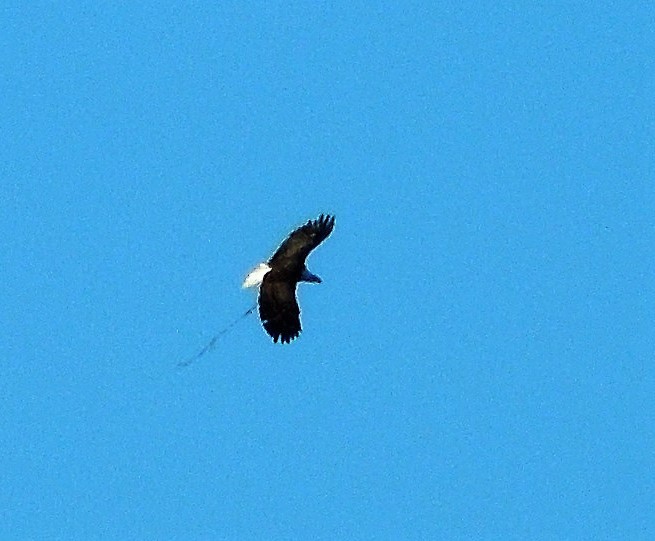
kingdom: Animalia
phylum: Chordata
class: Aves
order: Accipitriformes
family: Accipitridae
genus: Haliaeetus
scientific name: Haliaeetus leucocephalus
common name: Bald eagle
